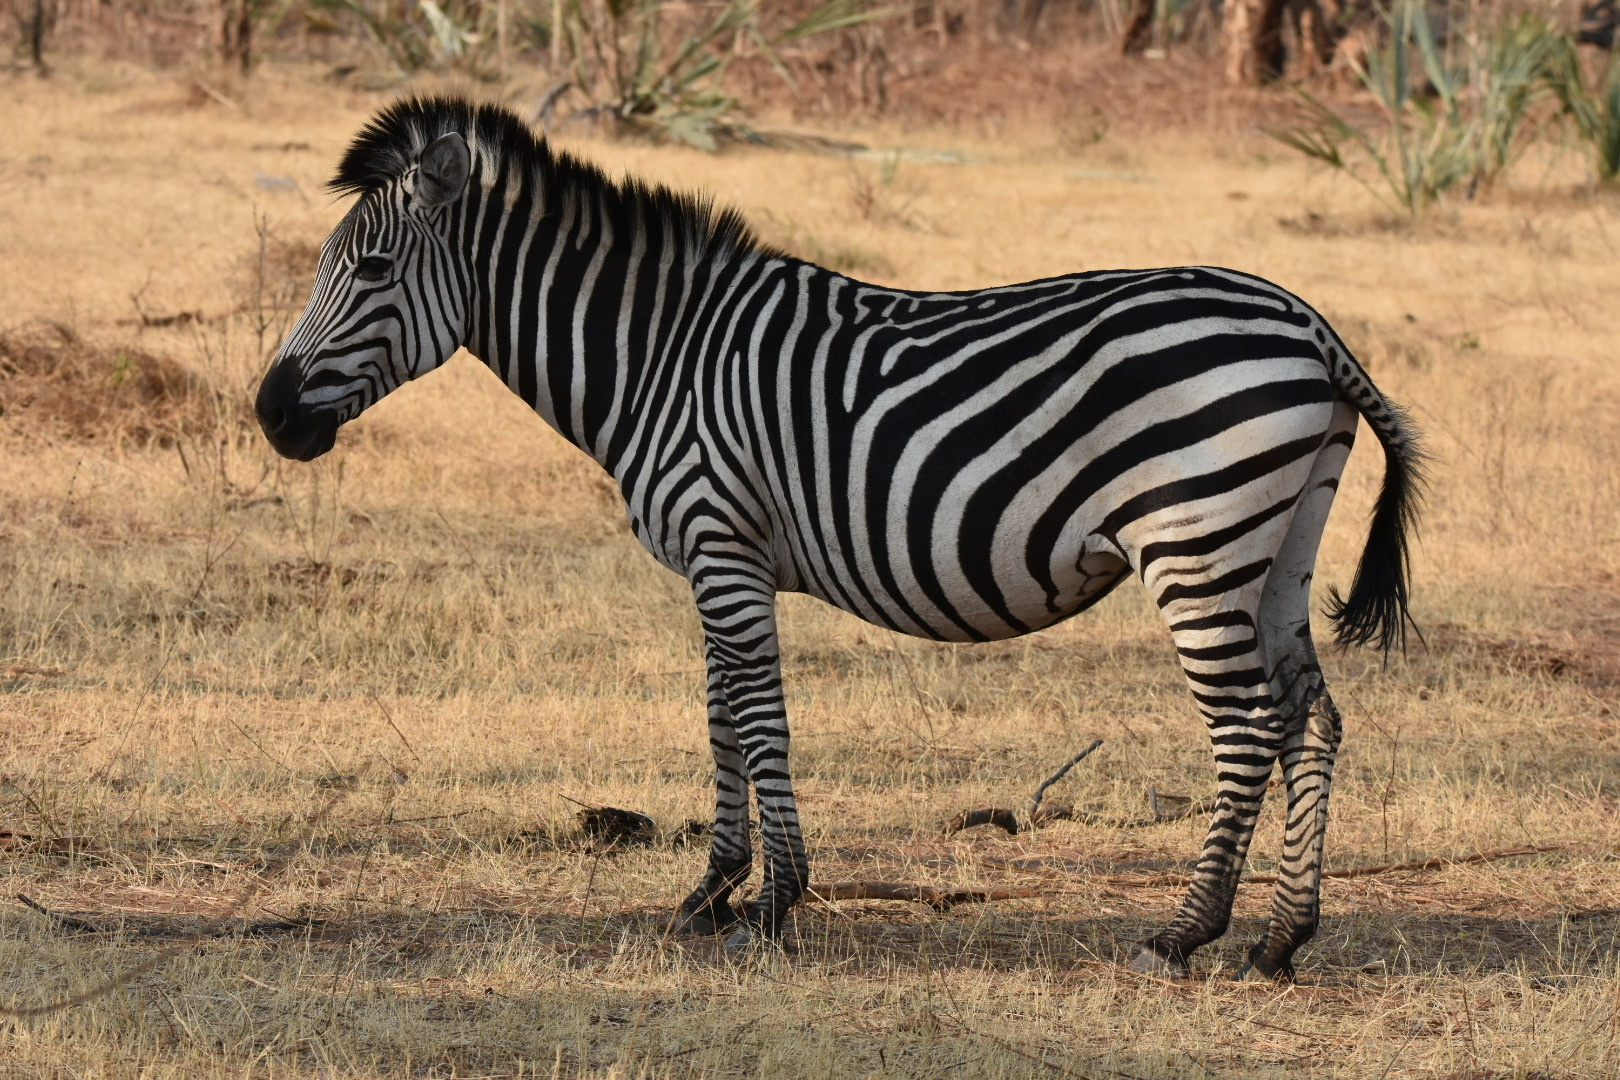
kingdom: Animalia
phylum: Chordata
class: Mammalia
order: Perissodactyla
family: Equidae
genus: Equus
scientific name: Equus quagga
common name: Plains zebra
